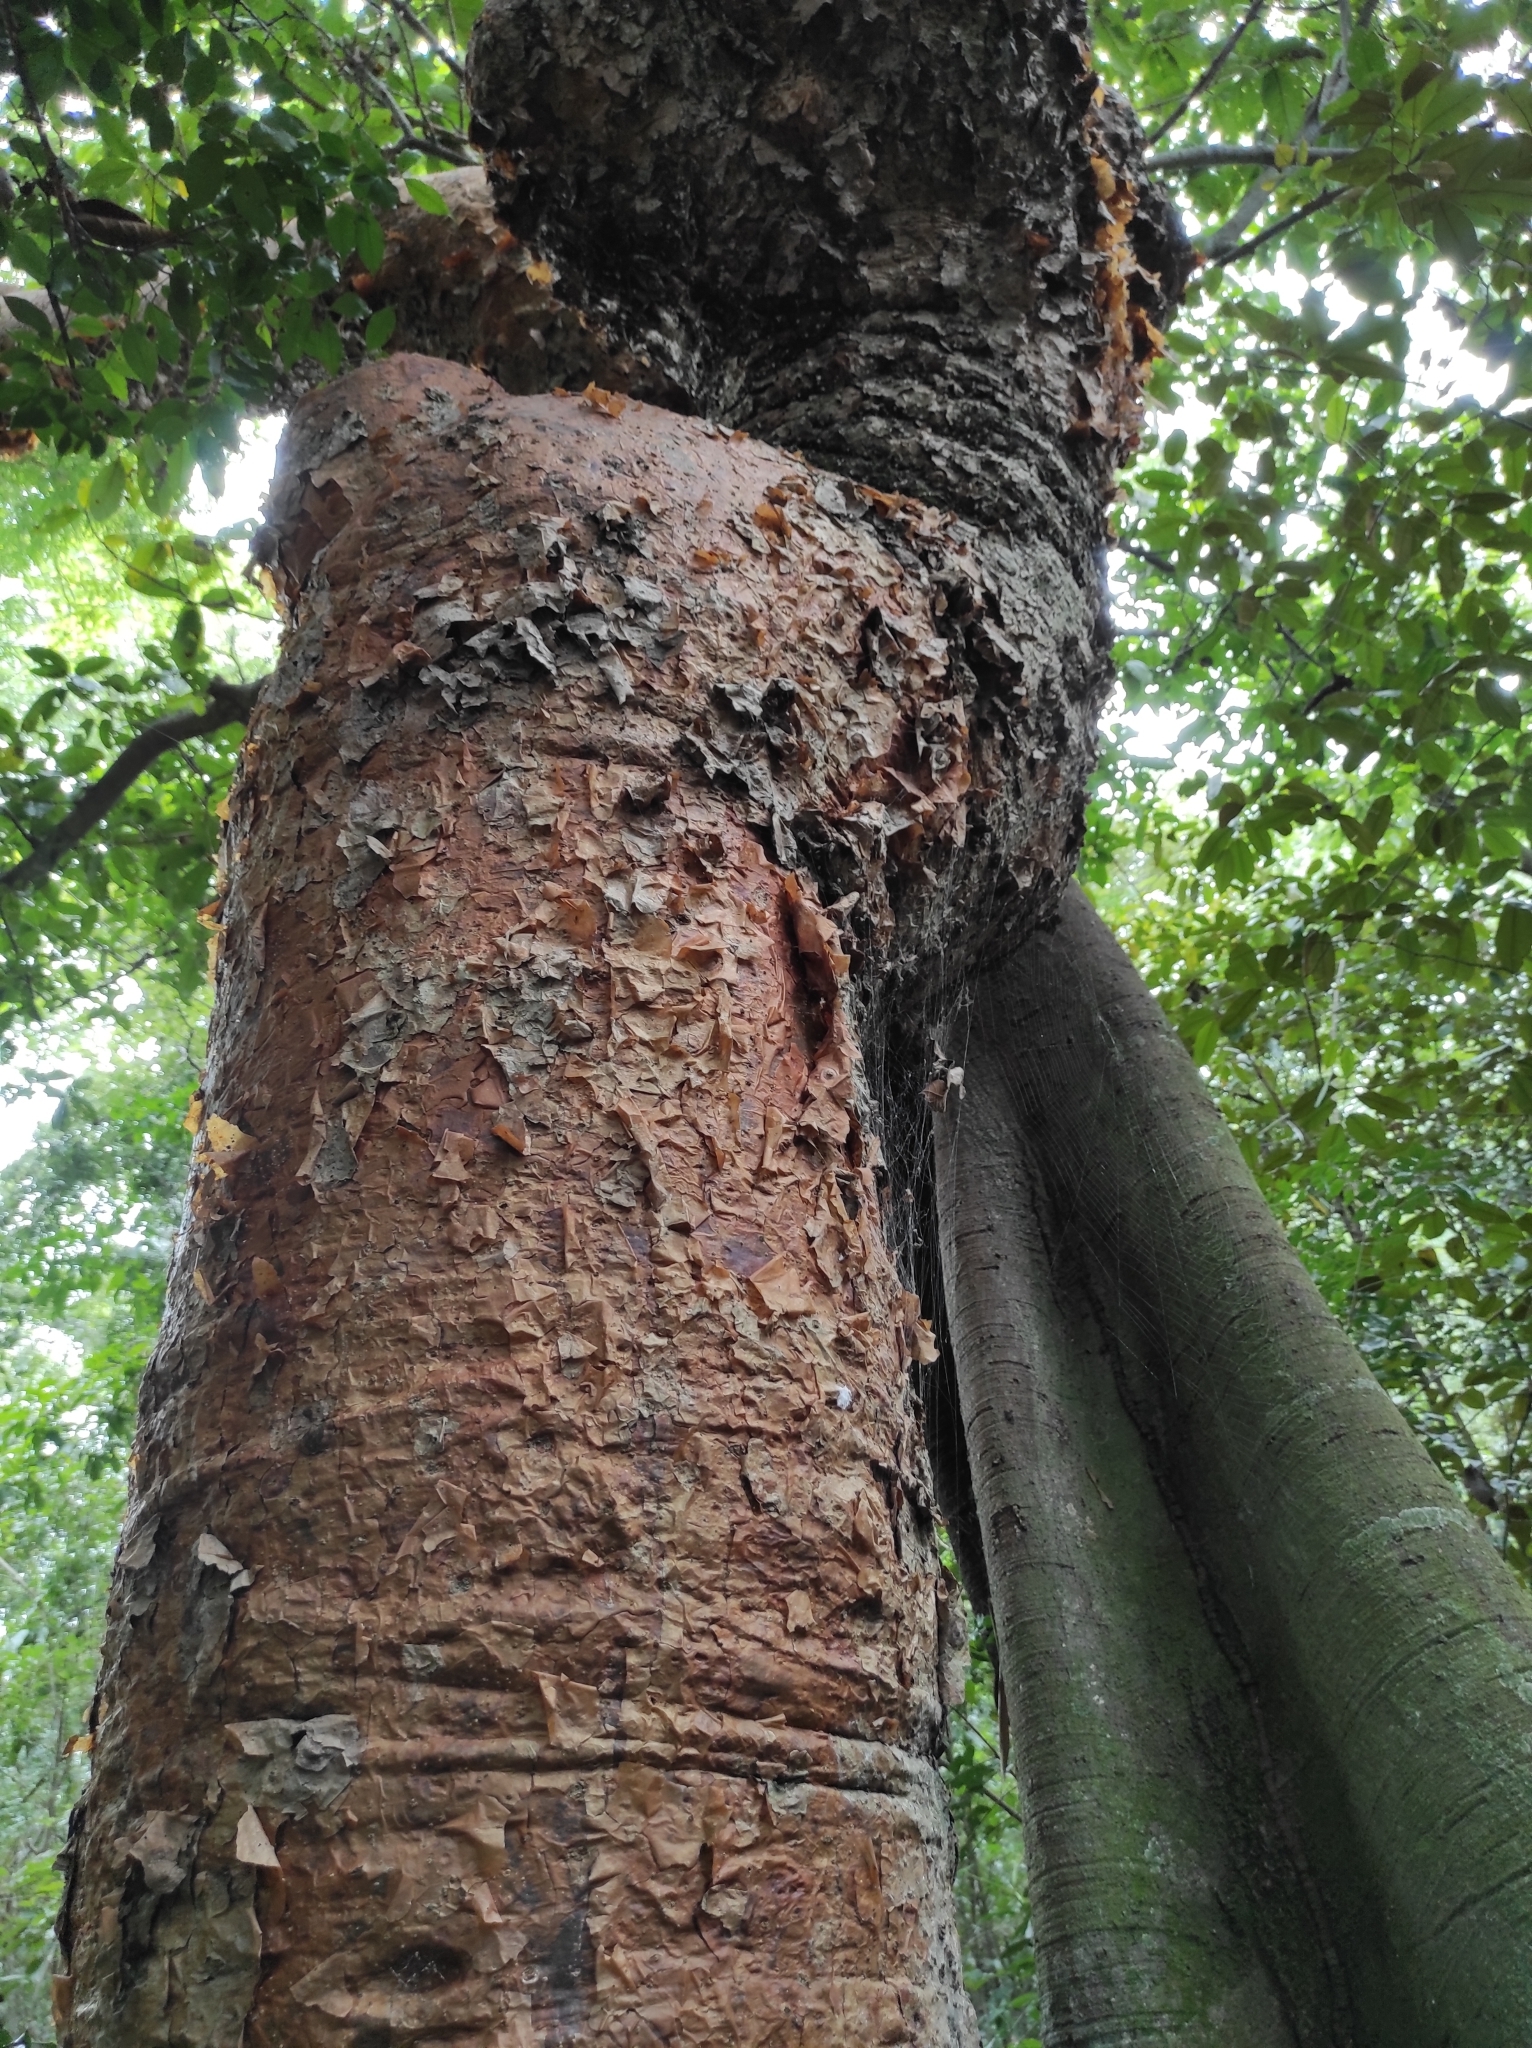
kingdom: Plantae
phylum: Tracheophyta
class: Magnoliopsida
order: Sapindales
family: Burseraceae
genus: Bursera
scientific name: Bursera simaruba
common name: Turpentine tree
